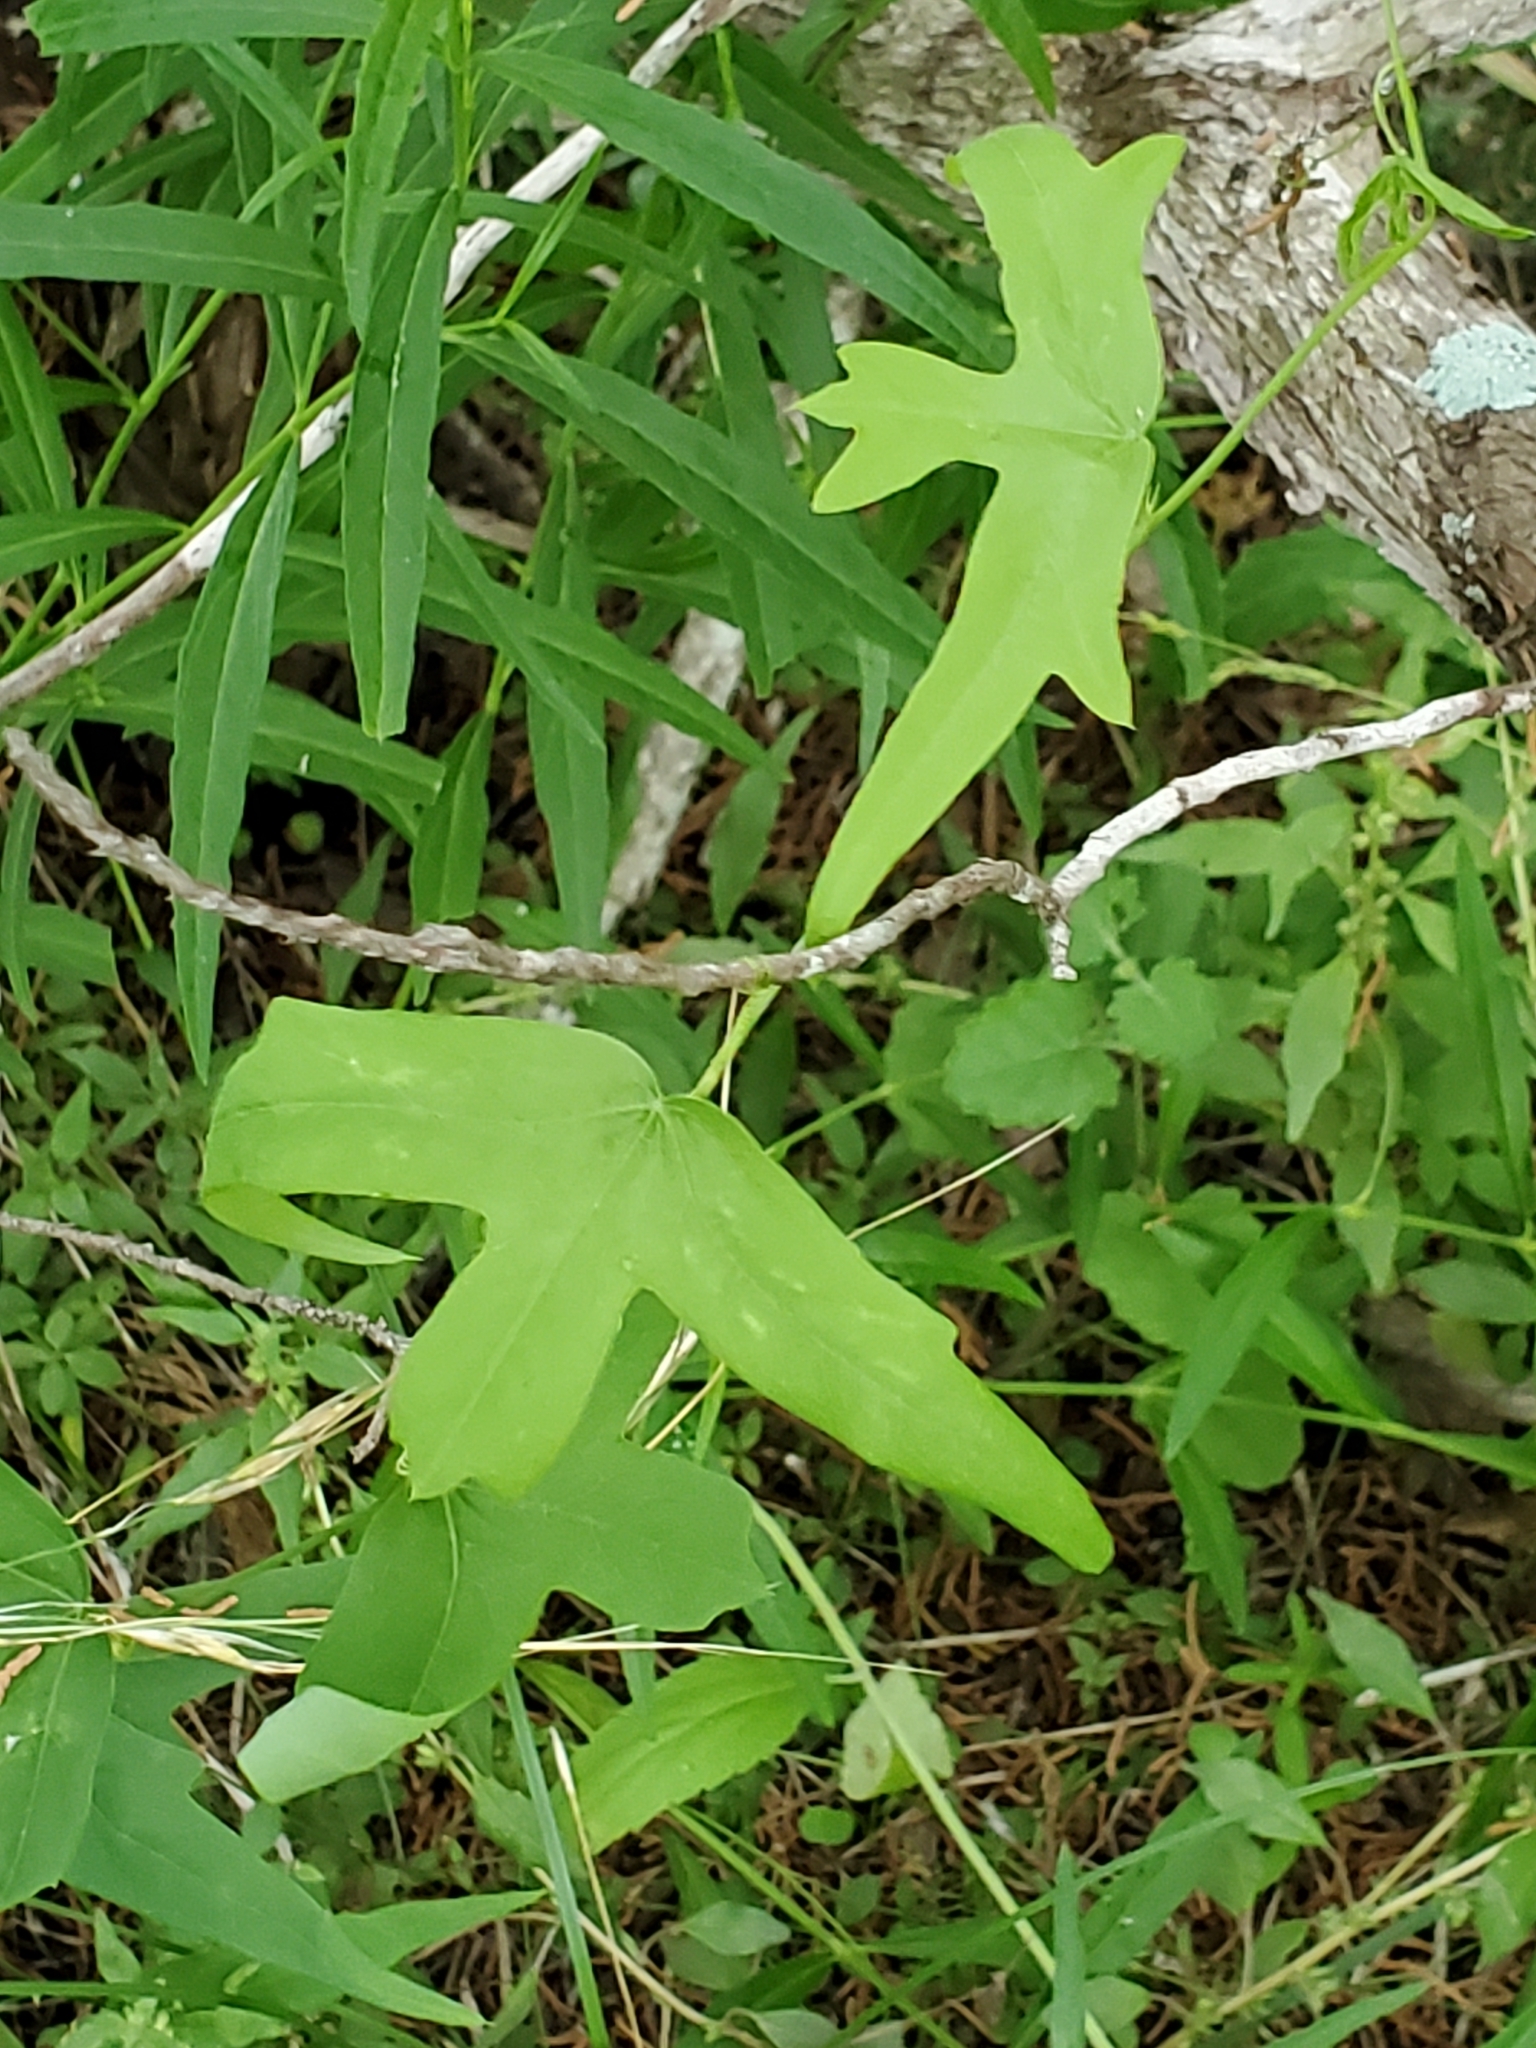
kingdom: Plantae
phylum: Tracheophyta
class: Magnoliopsida
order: Malpighiales
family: Passifloraceae
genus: Passiflora
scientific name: Passiflora tenuiloba
